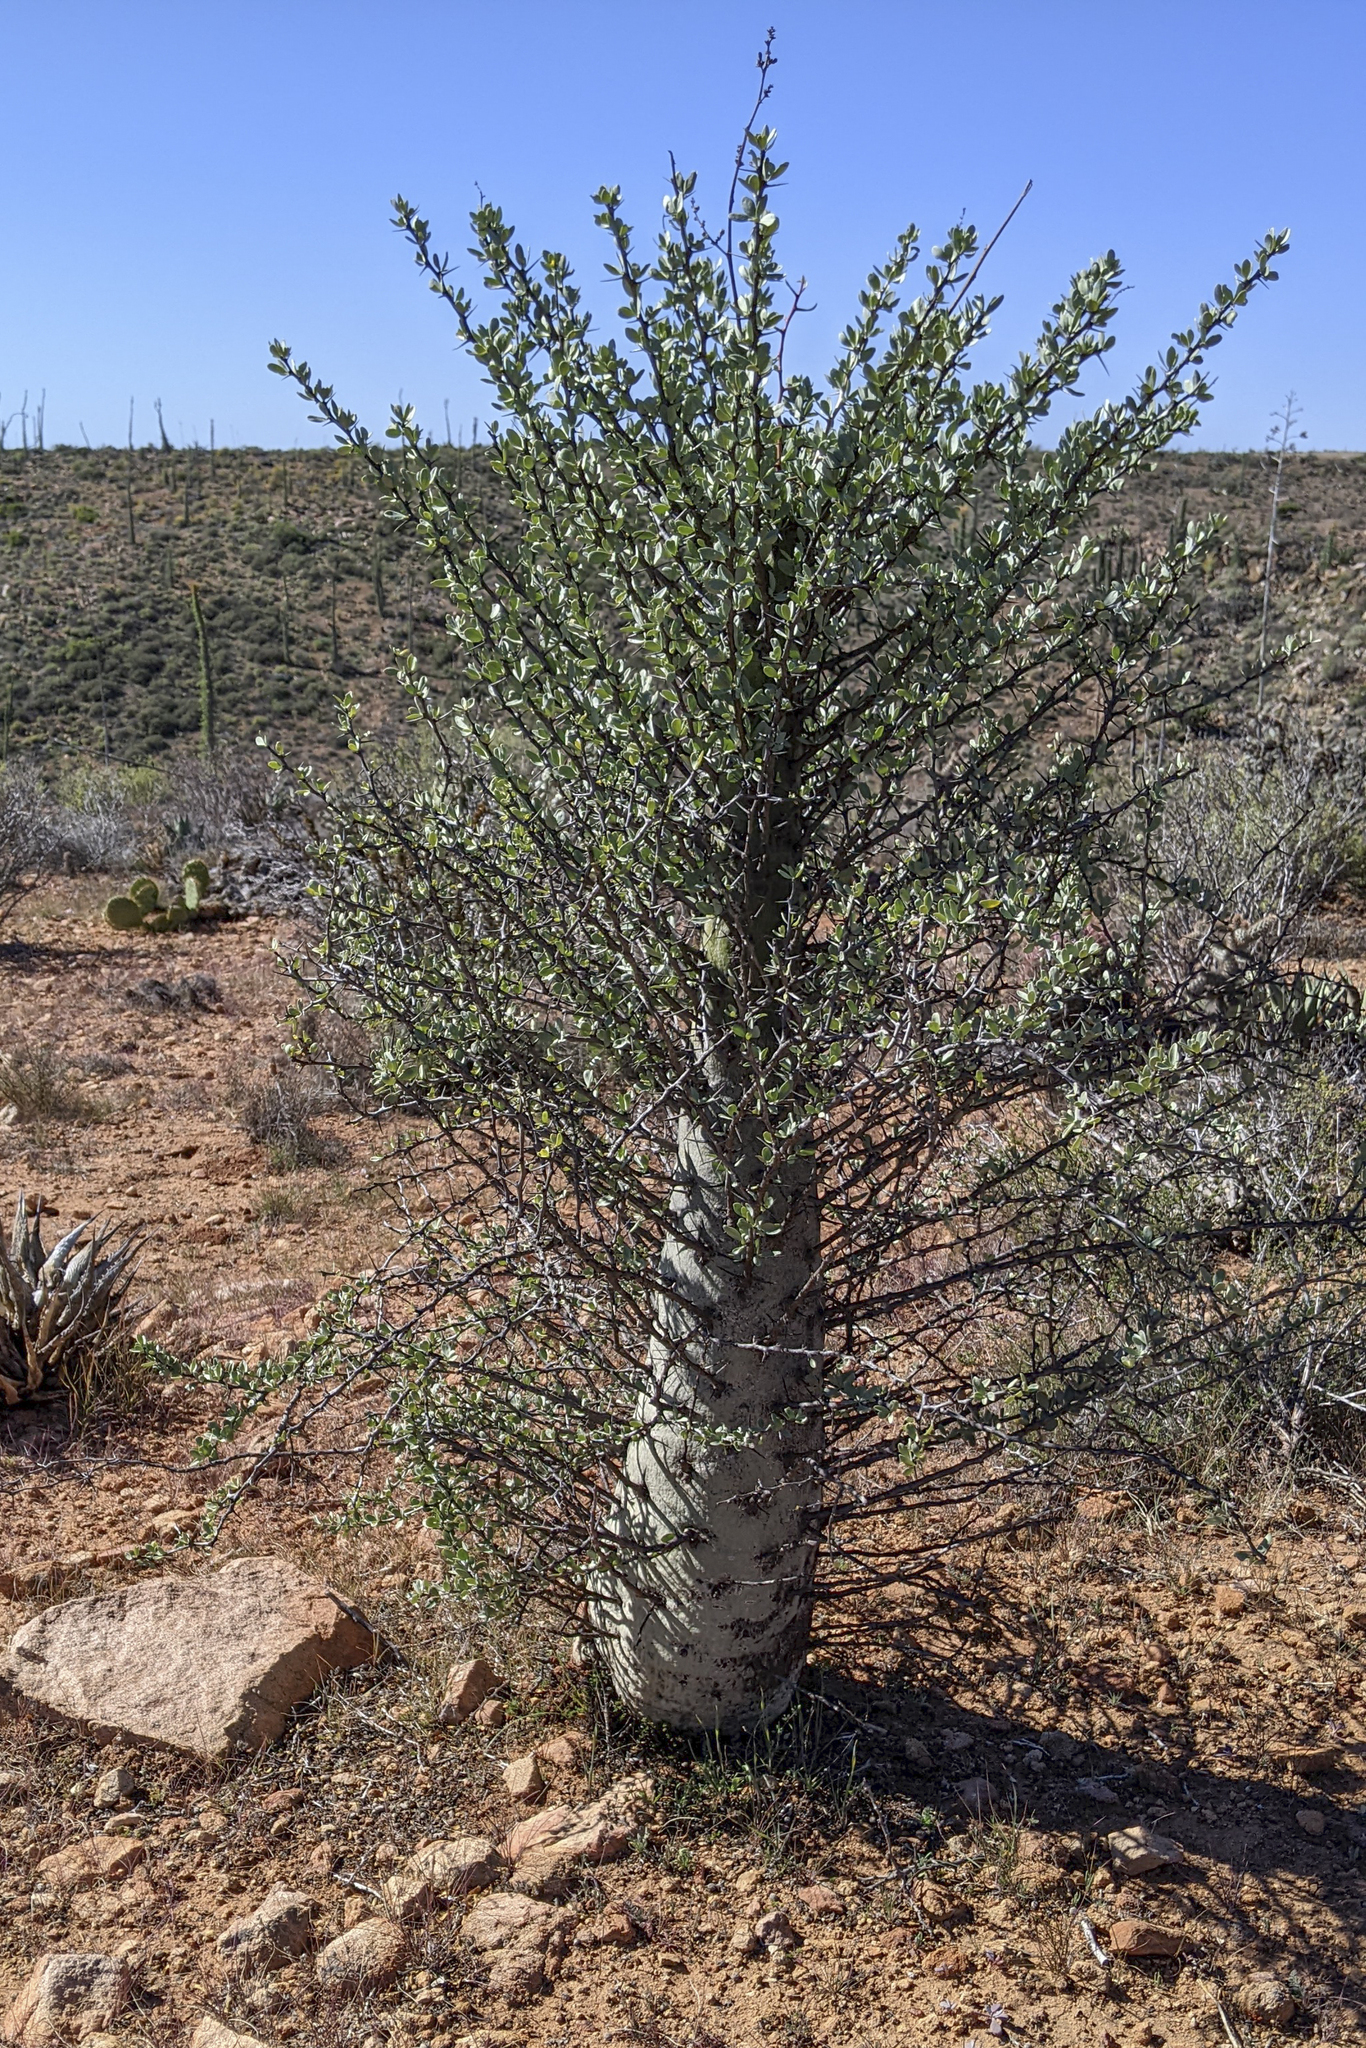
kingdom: Plantae
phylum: Tracheophyta
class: Magnoliopsida
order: Ericales
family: Fouquieriaceae
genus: Fouquieria
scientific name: Fouquieria columnaris
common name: Boojumtree
